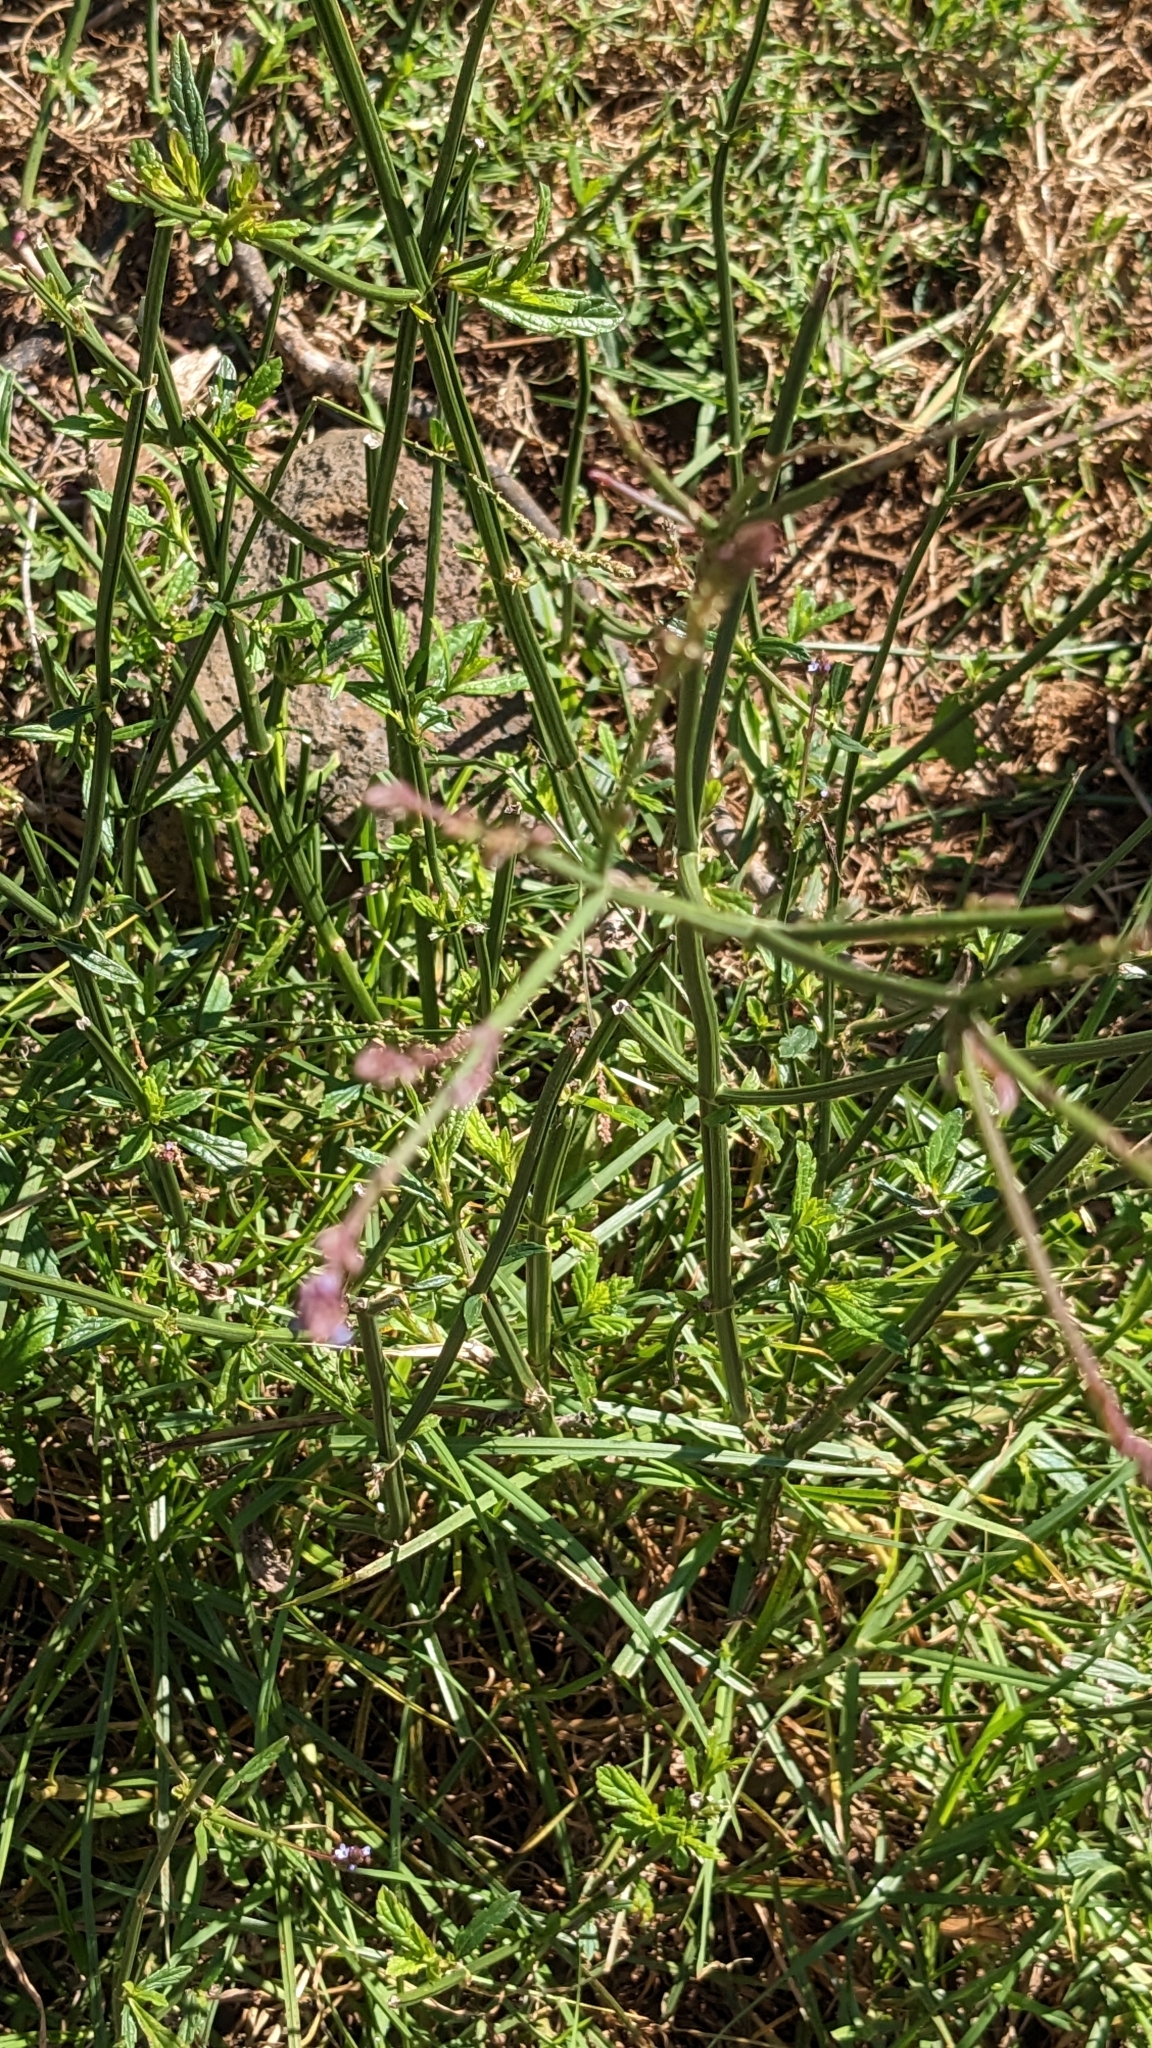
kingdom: Plantae
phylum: Tracheophyta
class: Magnoliopsida
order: Lamiales
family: Verbenaceae
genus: Verbena
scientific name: Verbena litoralis
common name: Seashore vervain
